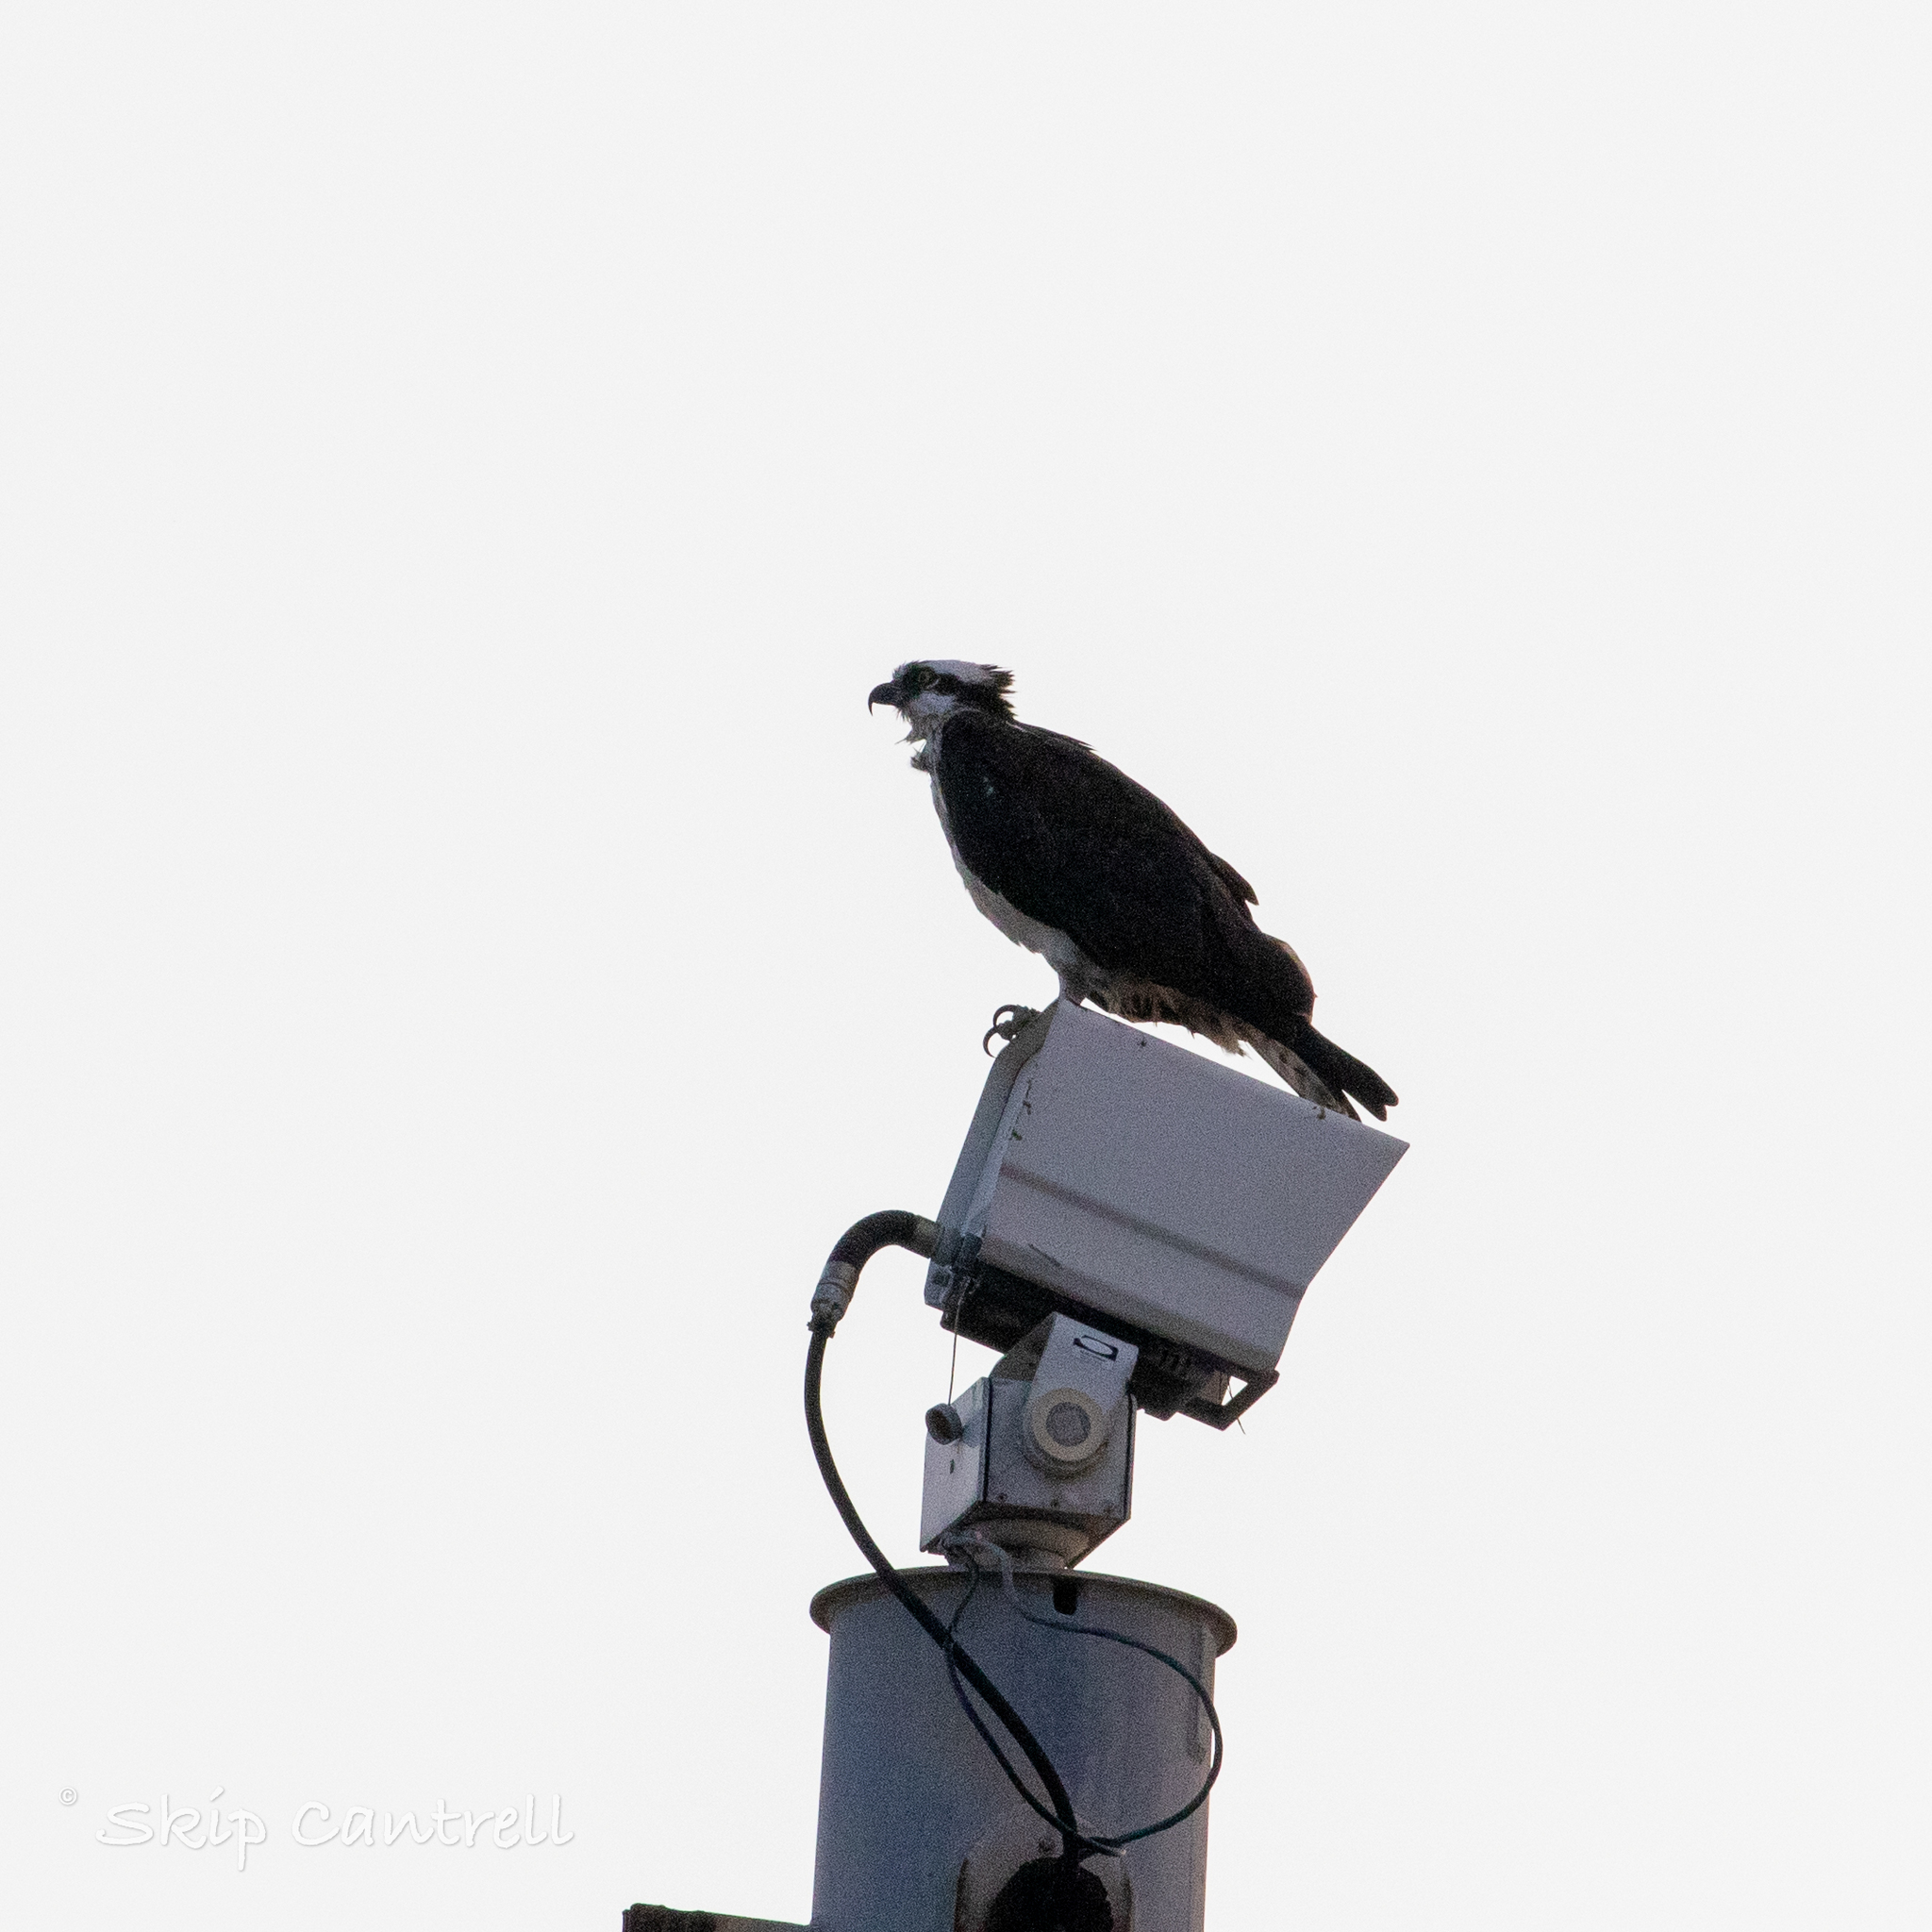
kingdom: Animalia
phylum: Chordata
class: Aves
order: Accipitriformes
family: Pandionidae
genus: Pandion
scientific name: Pandion haliaetus
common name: Osprey
